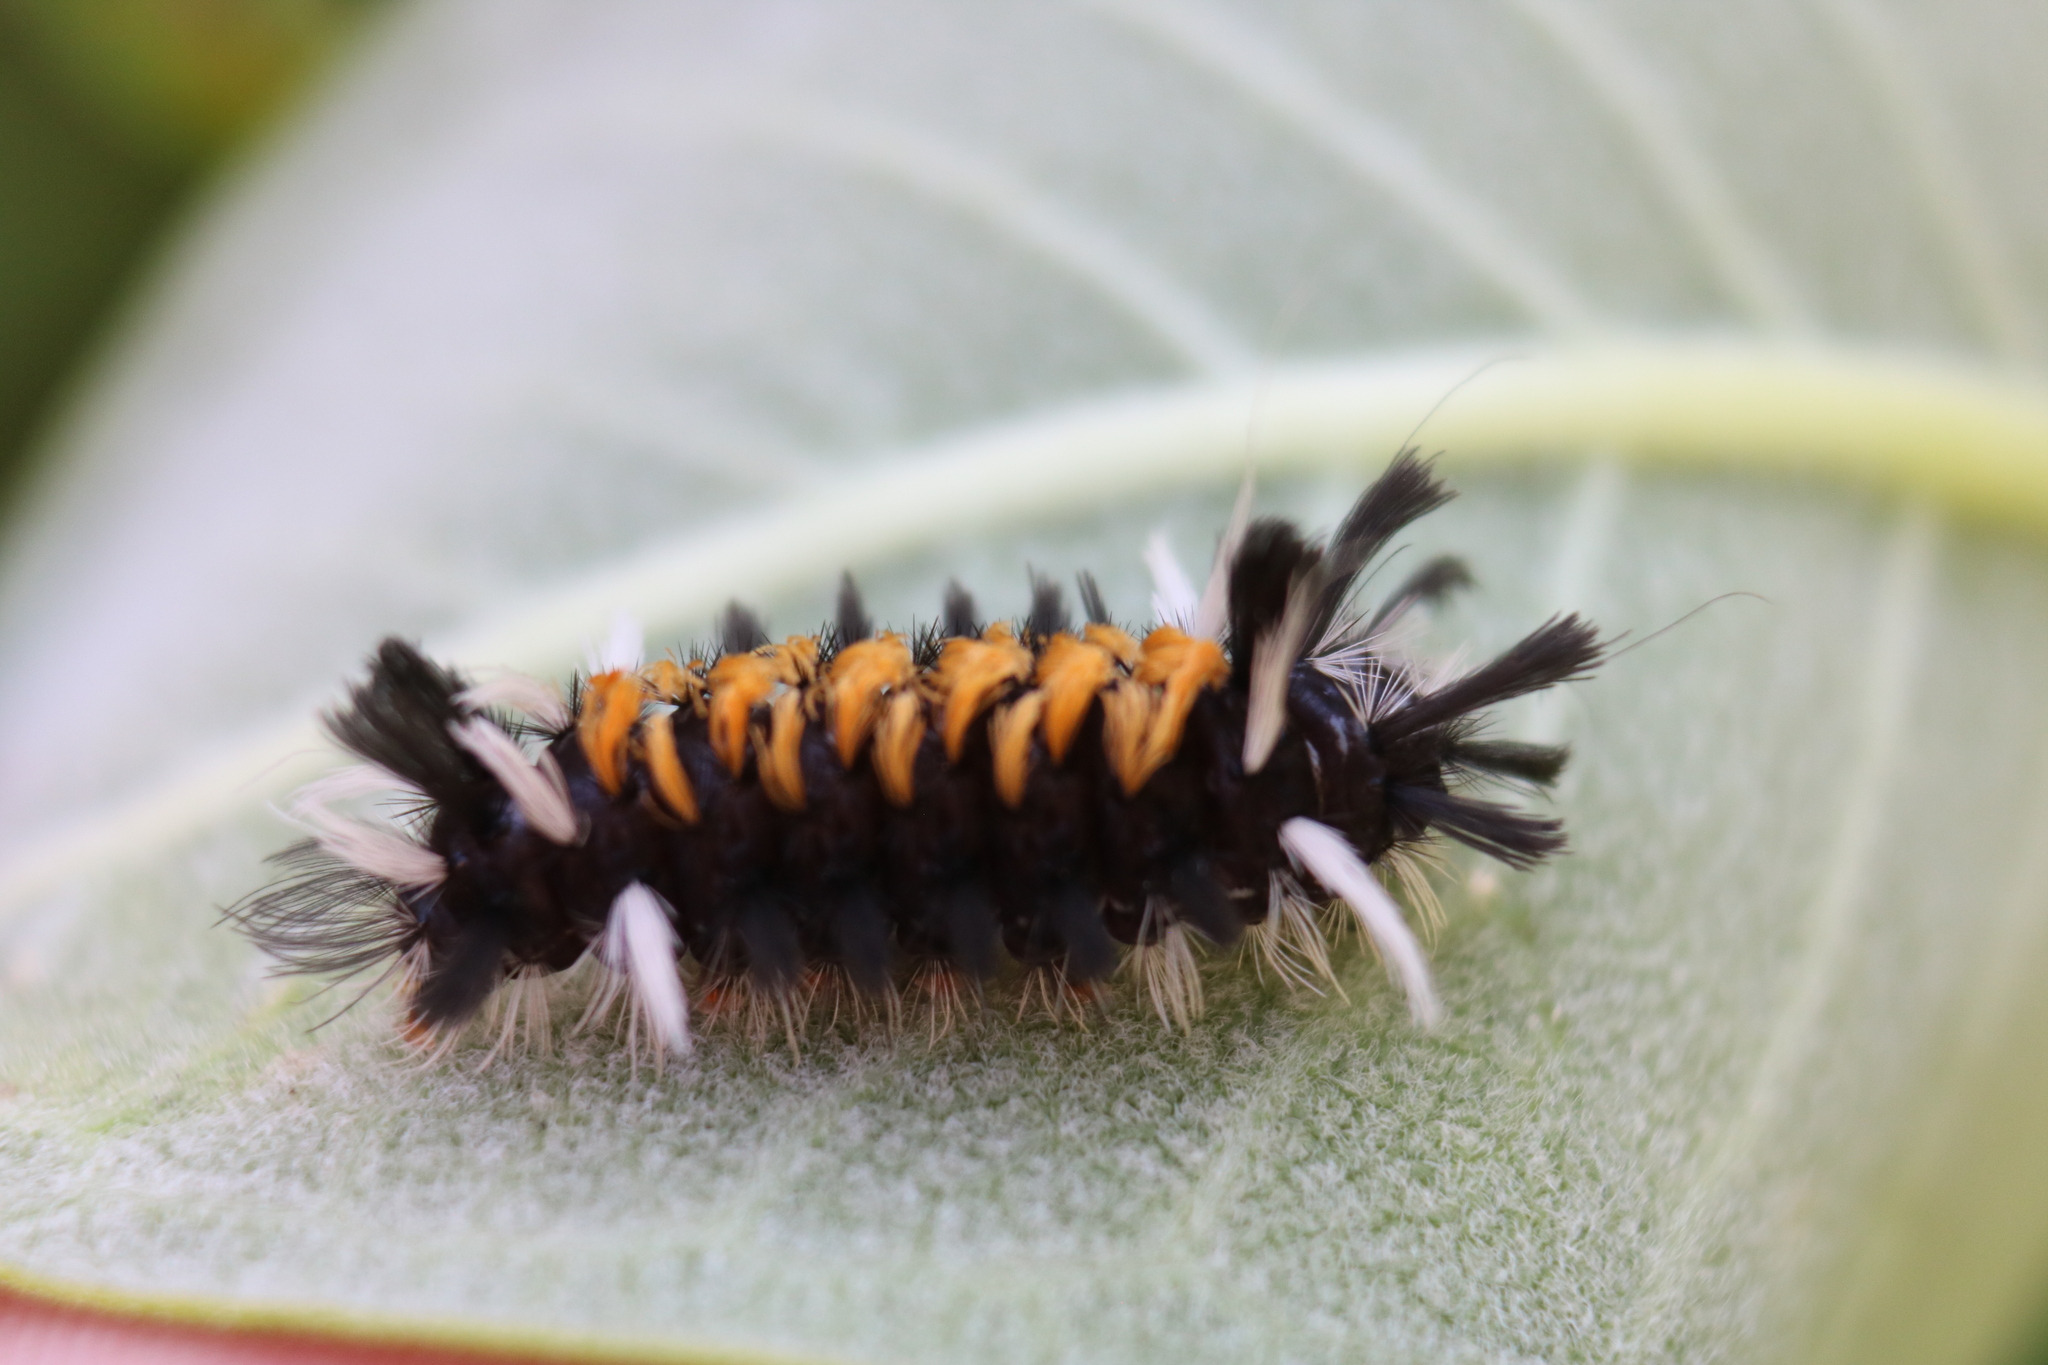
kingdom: Animalia
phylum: Arthropoda
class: Insecta
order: Lepidoptera
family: Erebidae
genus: Euchaetes
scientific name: Euchaetes egle
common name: Milkweed tussock moth
